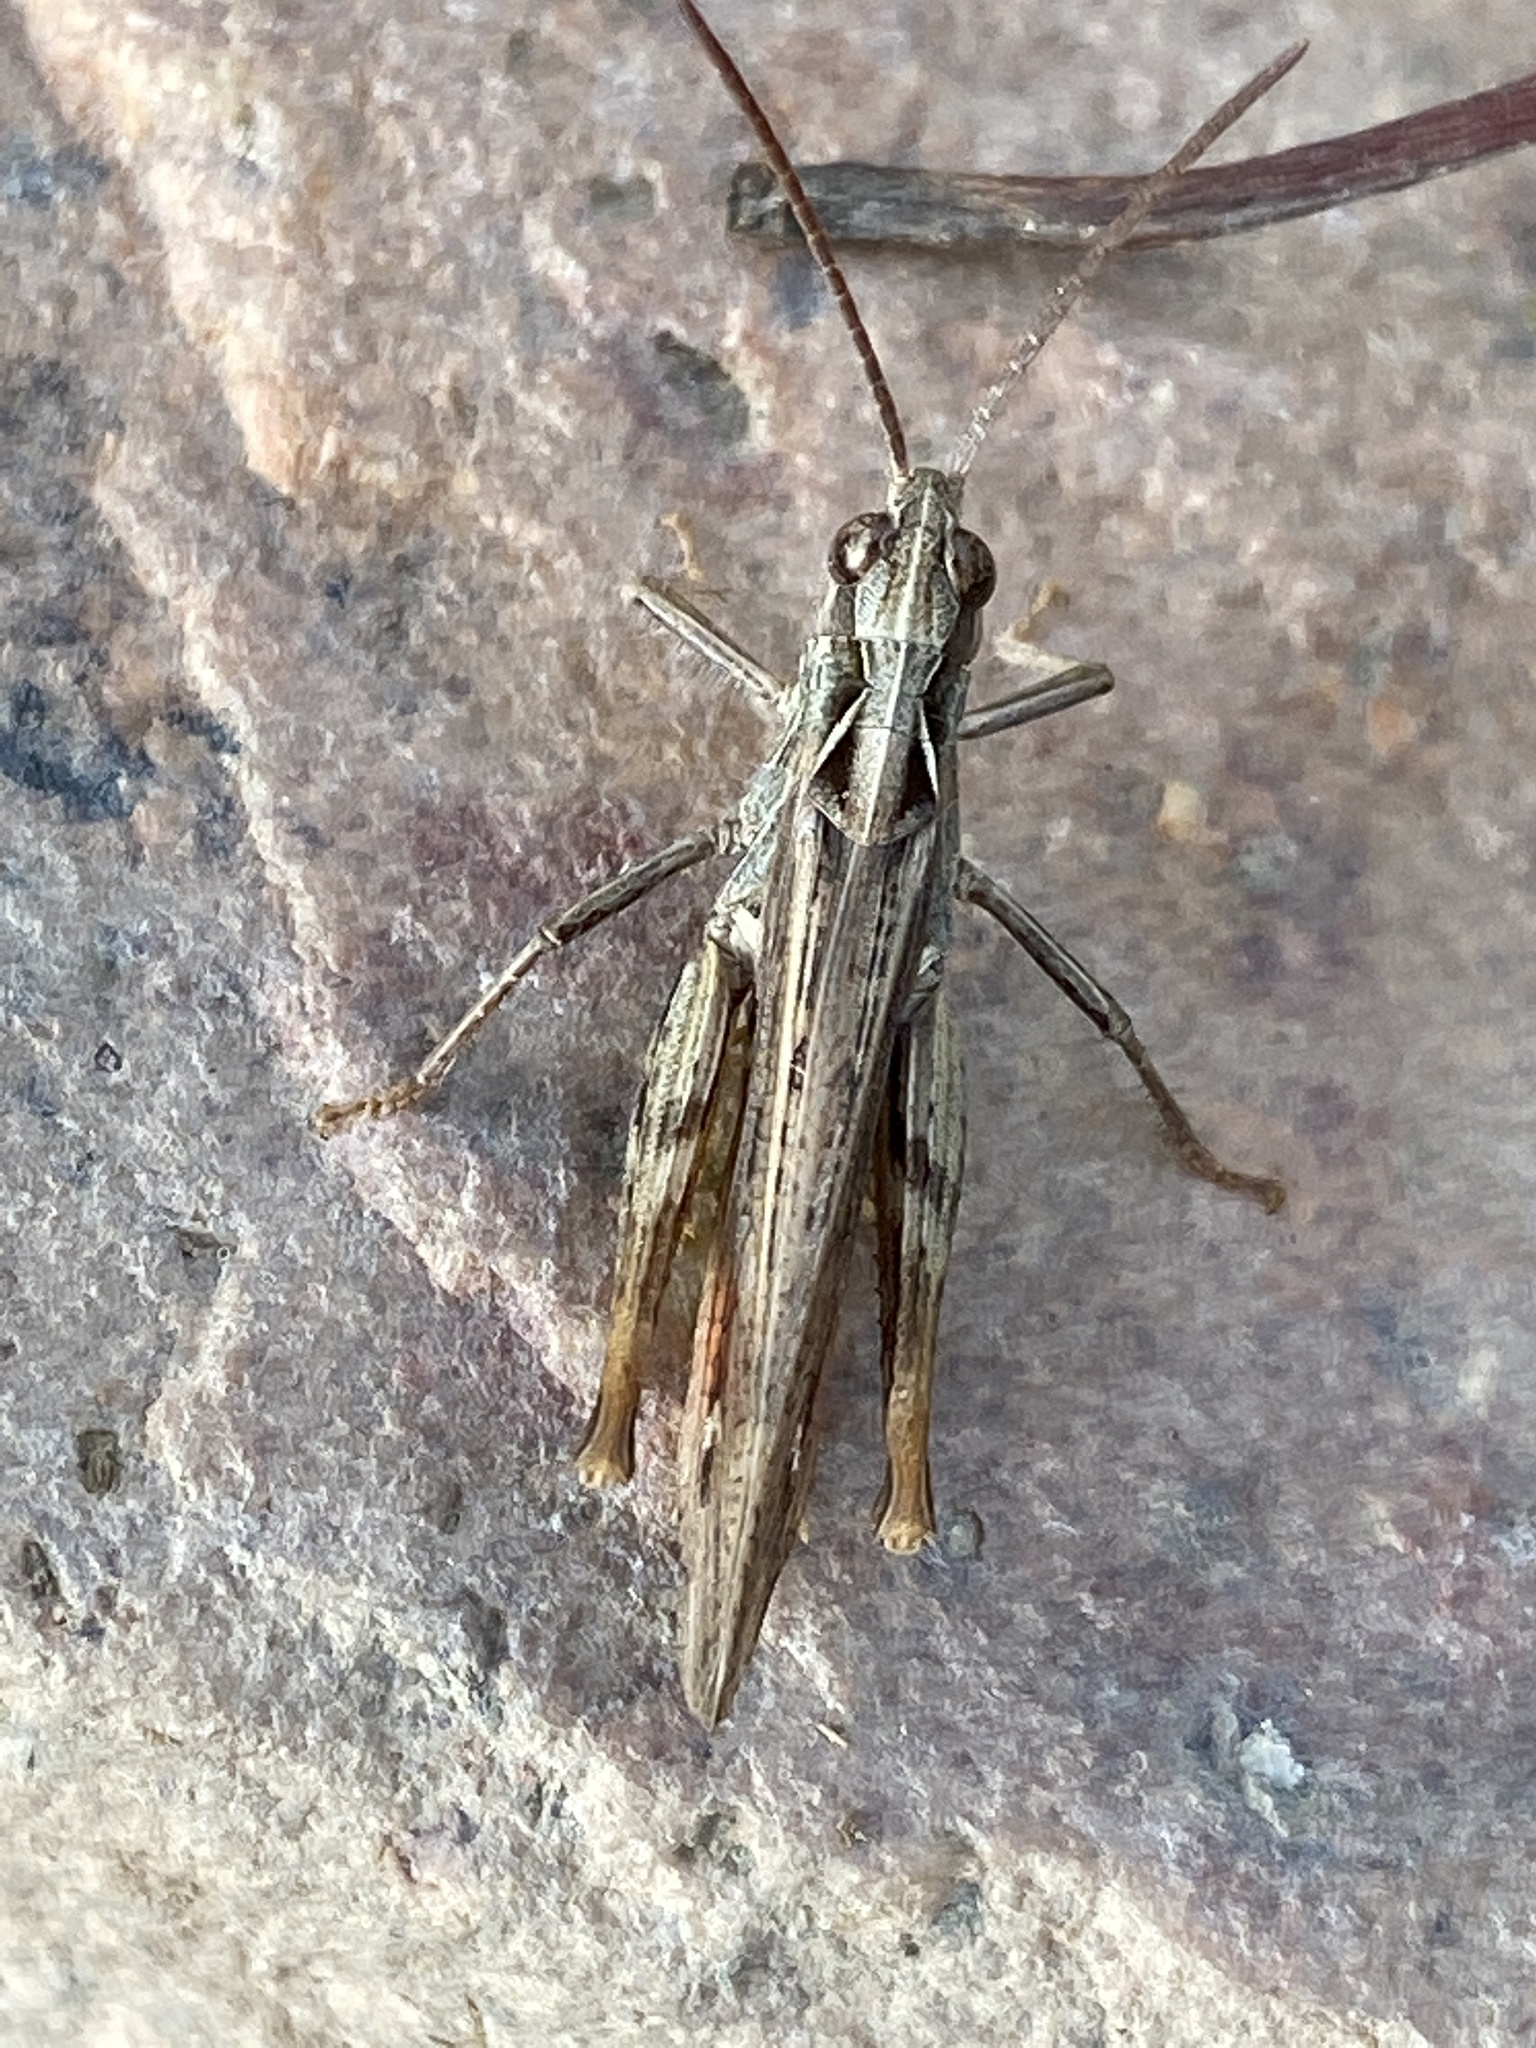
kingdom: Animalia
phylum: Arthropoda
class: Insecta
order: Orthoptera
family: Acrididae
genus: Chorthippus
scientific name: Chorthippus biguttulus
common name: Bow-winged grasshopper
